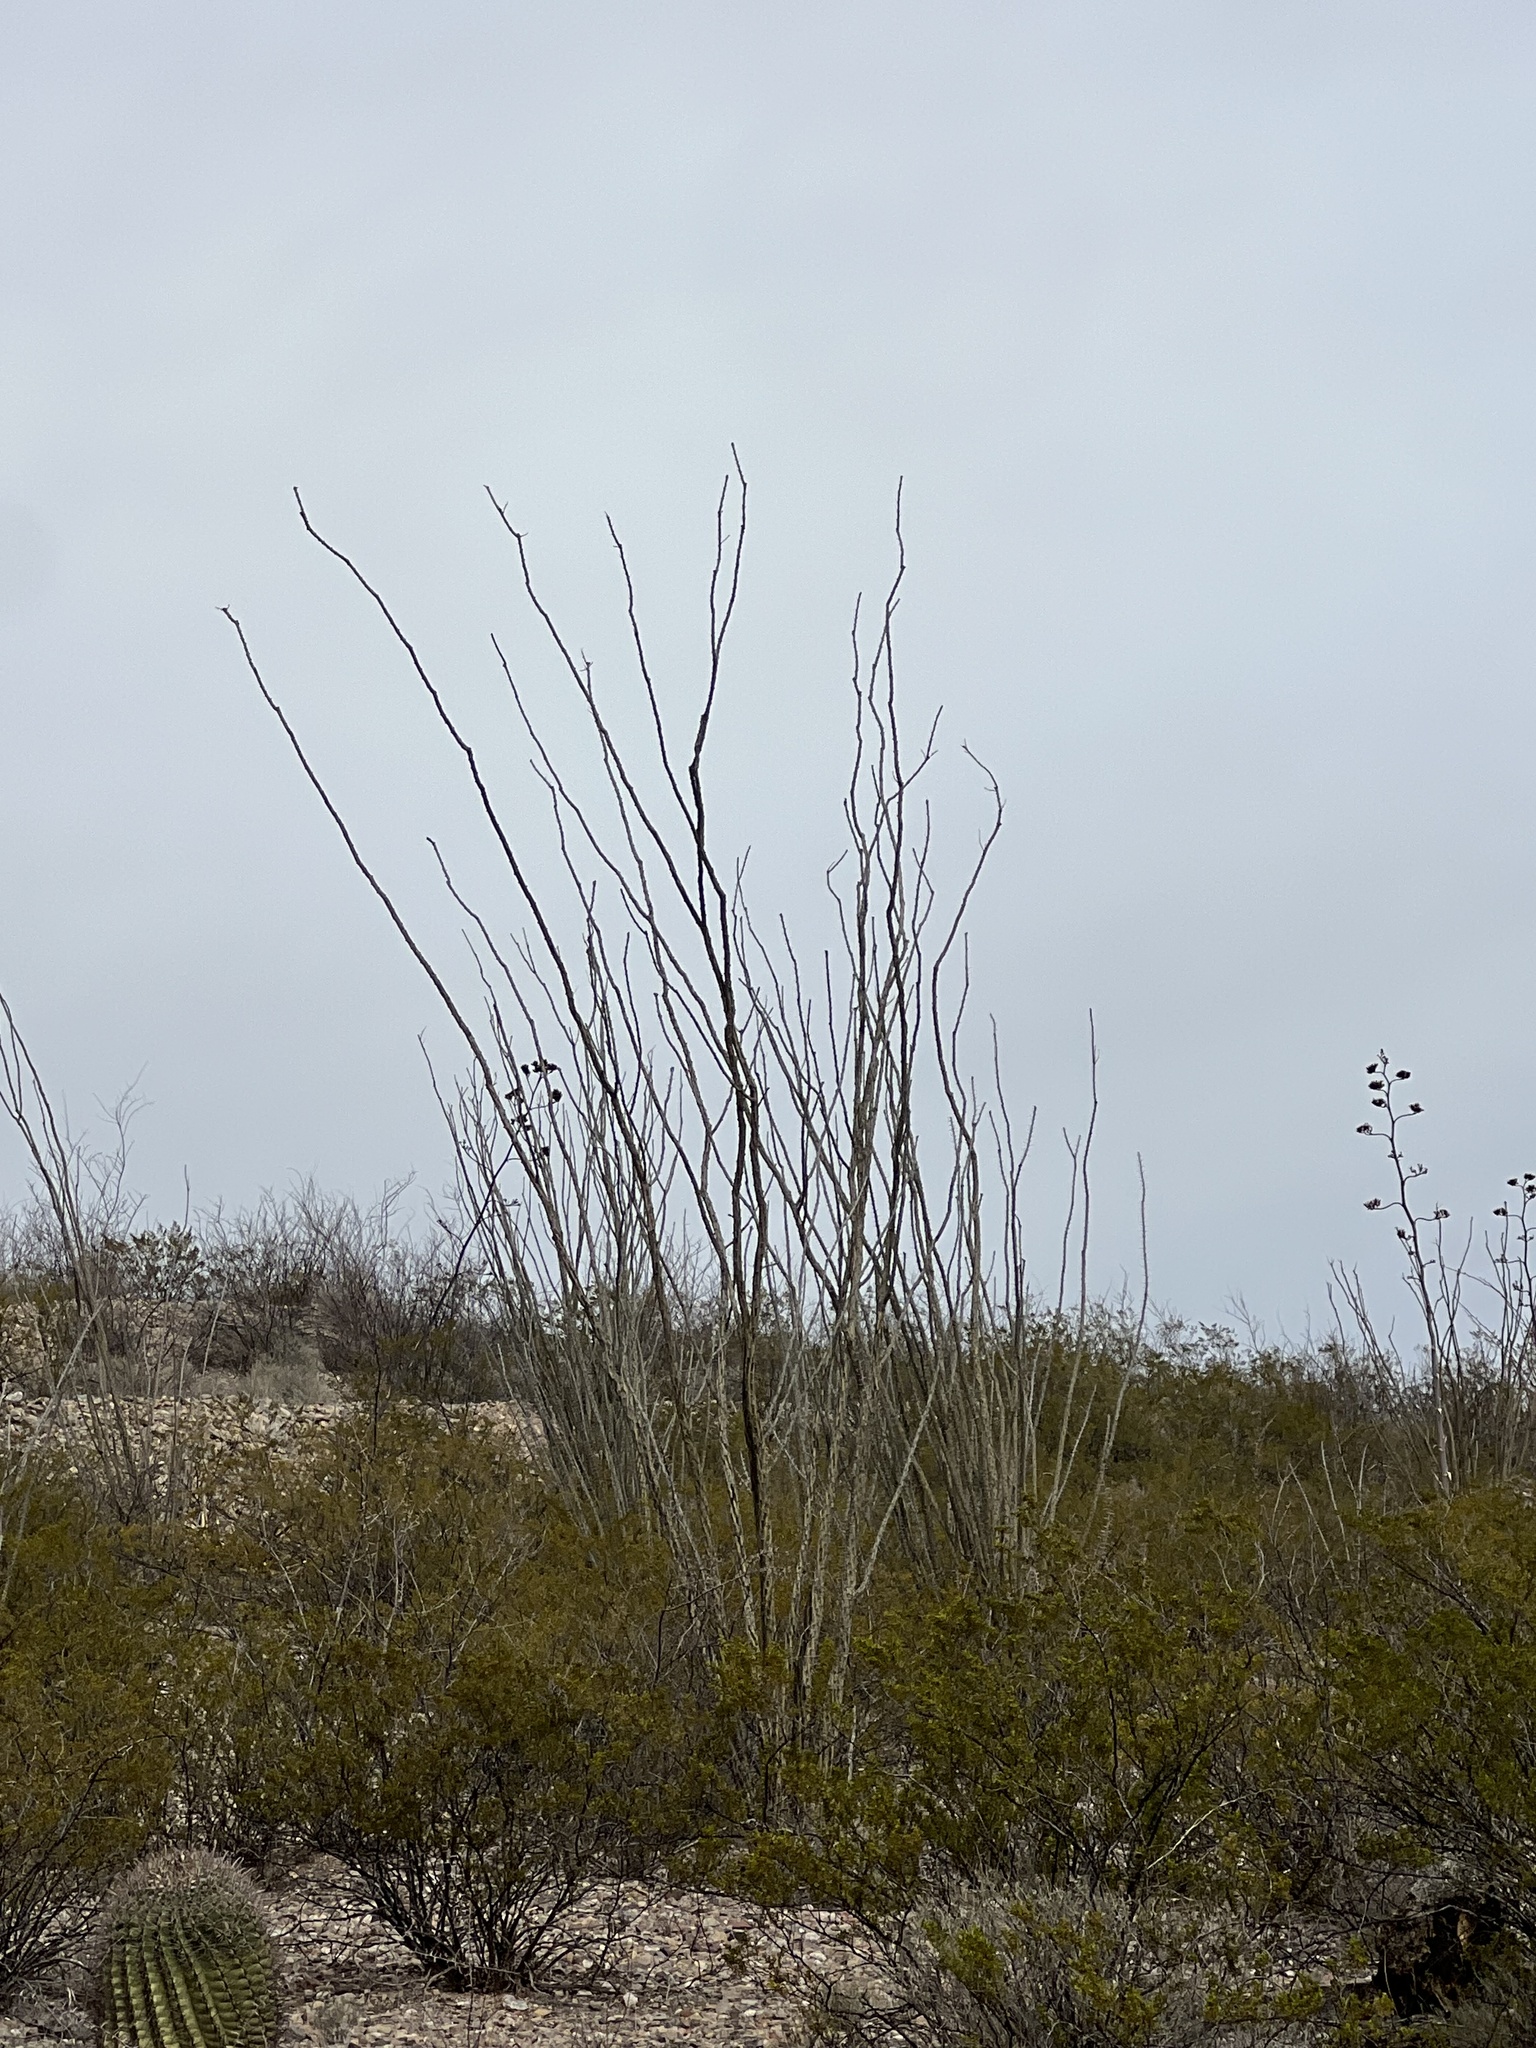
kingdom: Plantae
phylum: Tracheophyta
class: Magnoliopsida
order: Ericales
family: Fouquieriaceae
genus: Fouquieria
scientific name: Fouquieria splendens
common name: Vine-cactus
